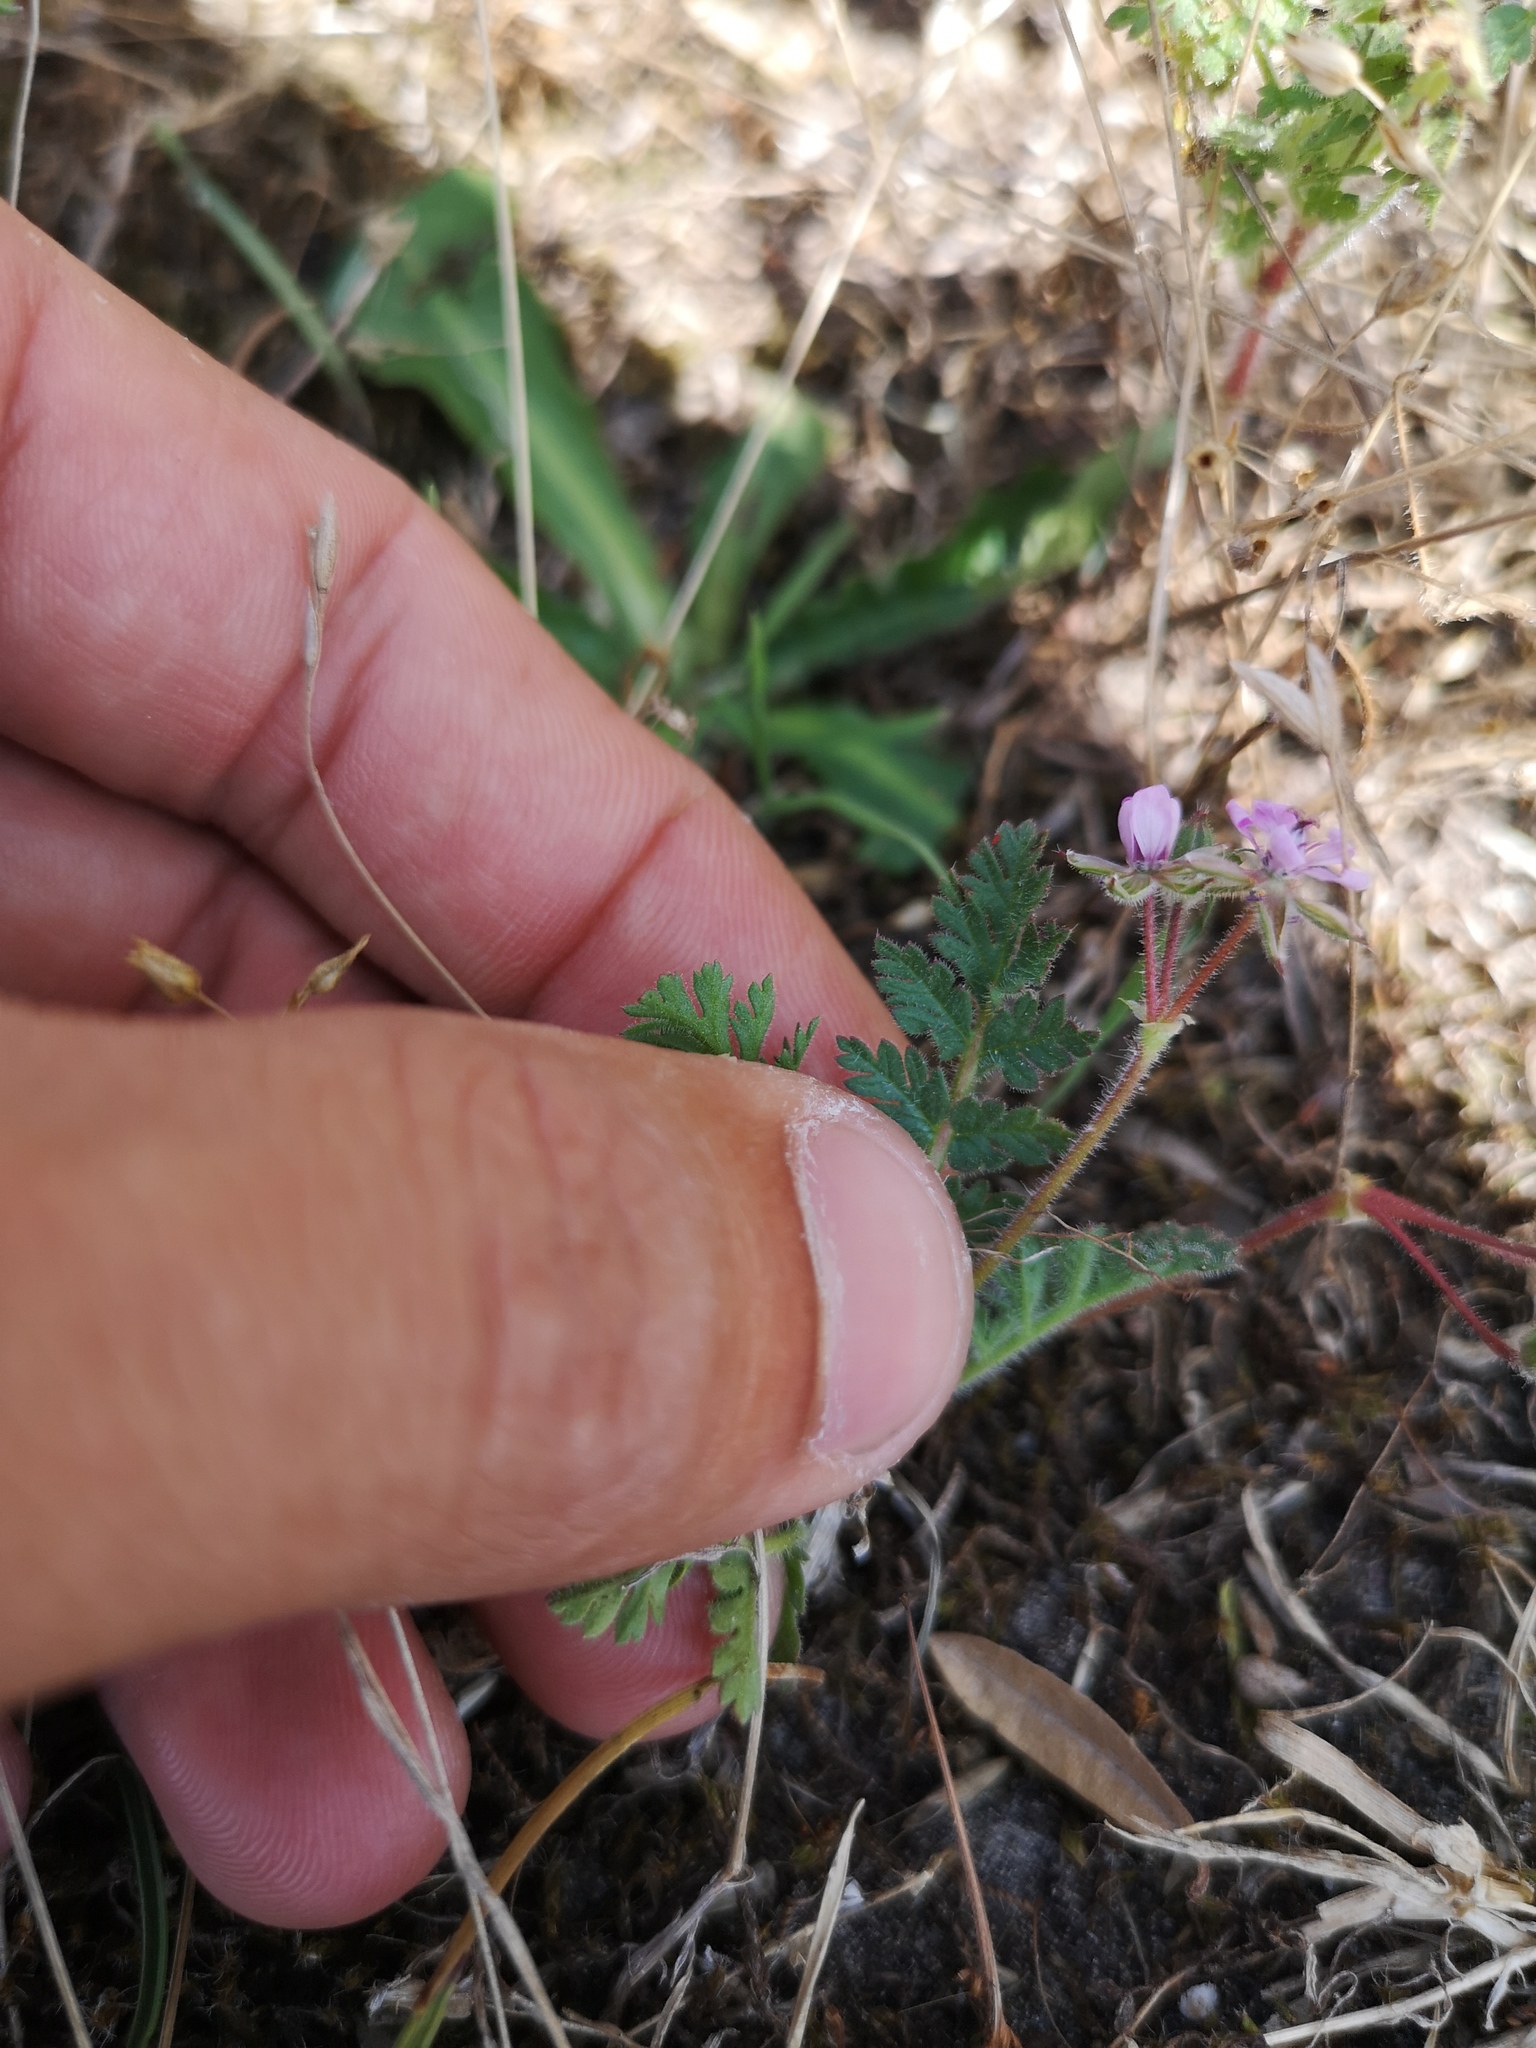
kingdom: Plantae
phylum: Tracheophyta
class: Magnoliopsida
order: Geraniales
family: Geraniaceae
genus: Erodium
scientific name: Erodium cicutarium
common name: Common stork's-bill
